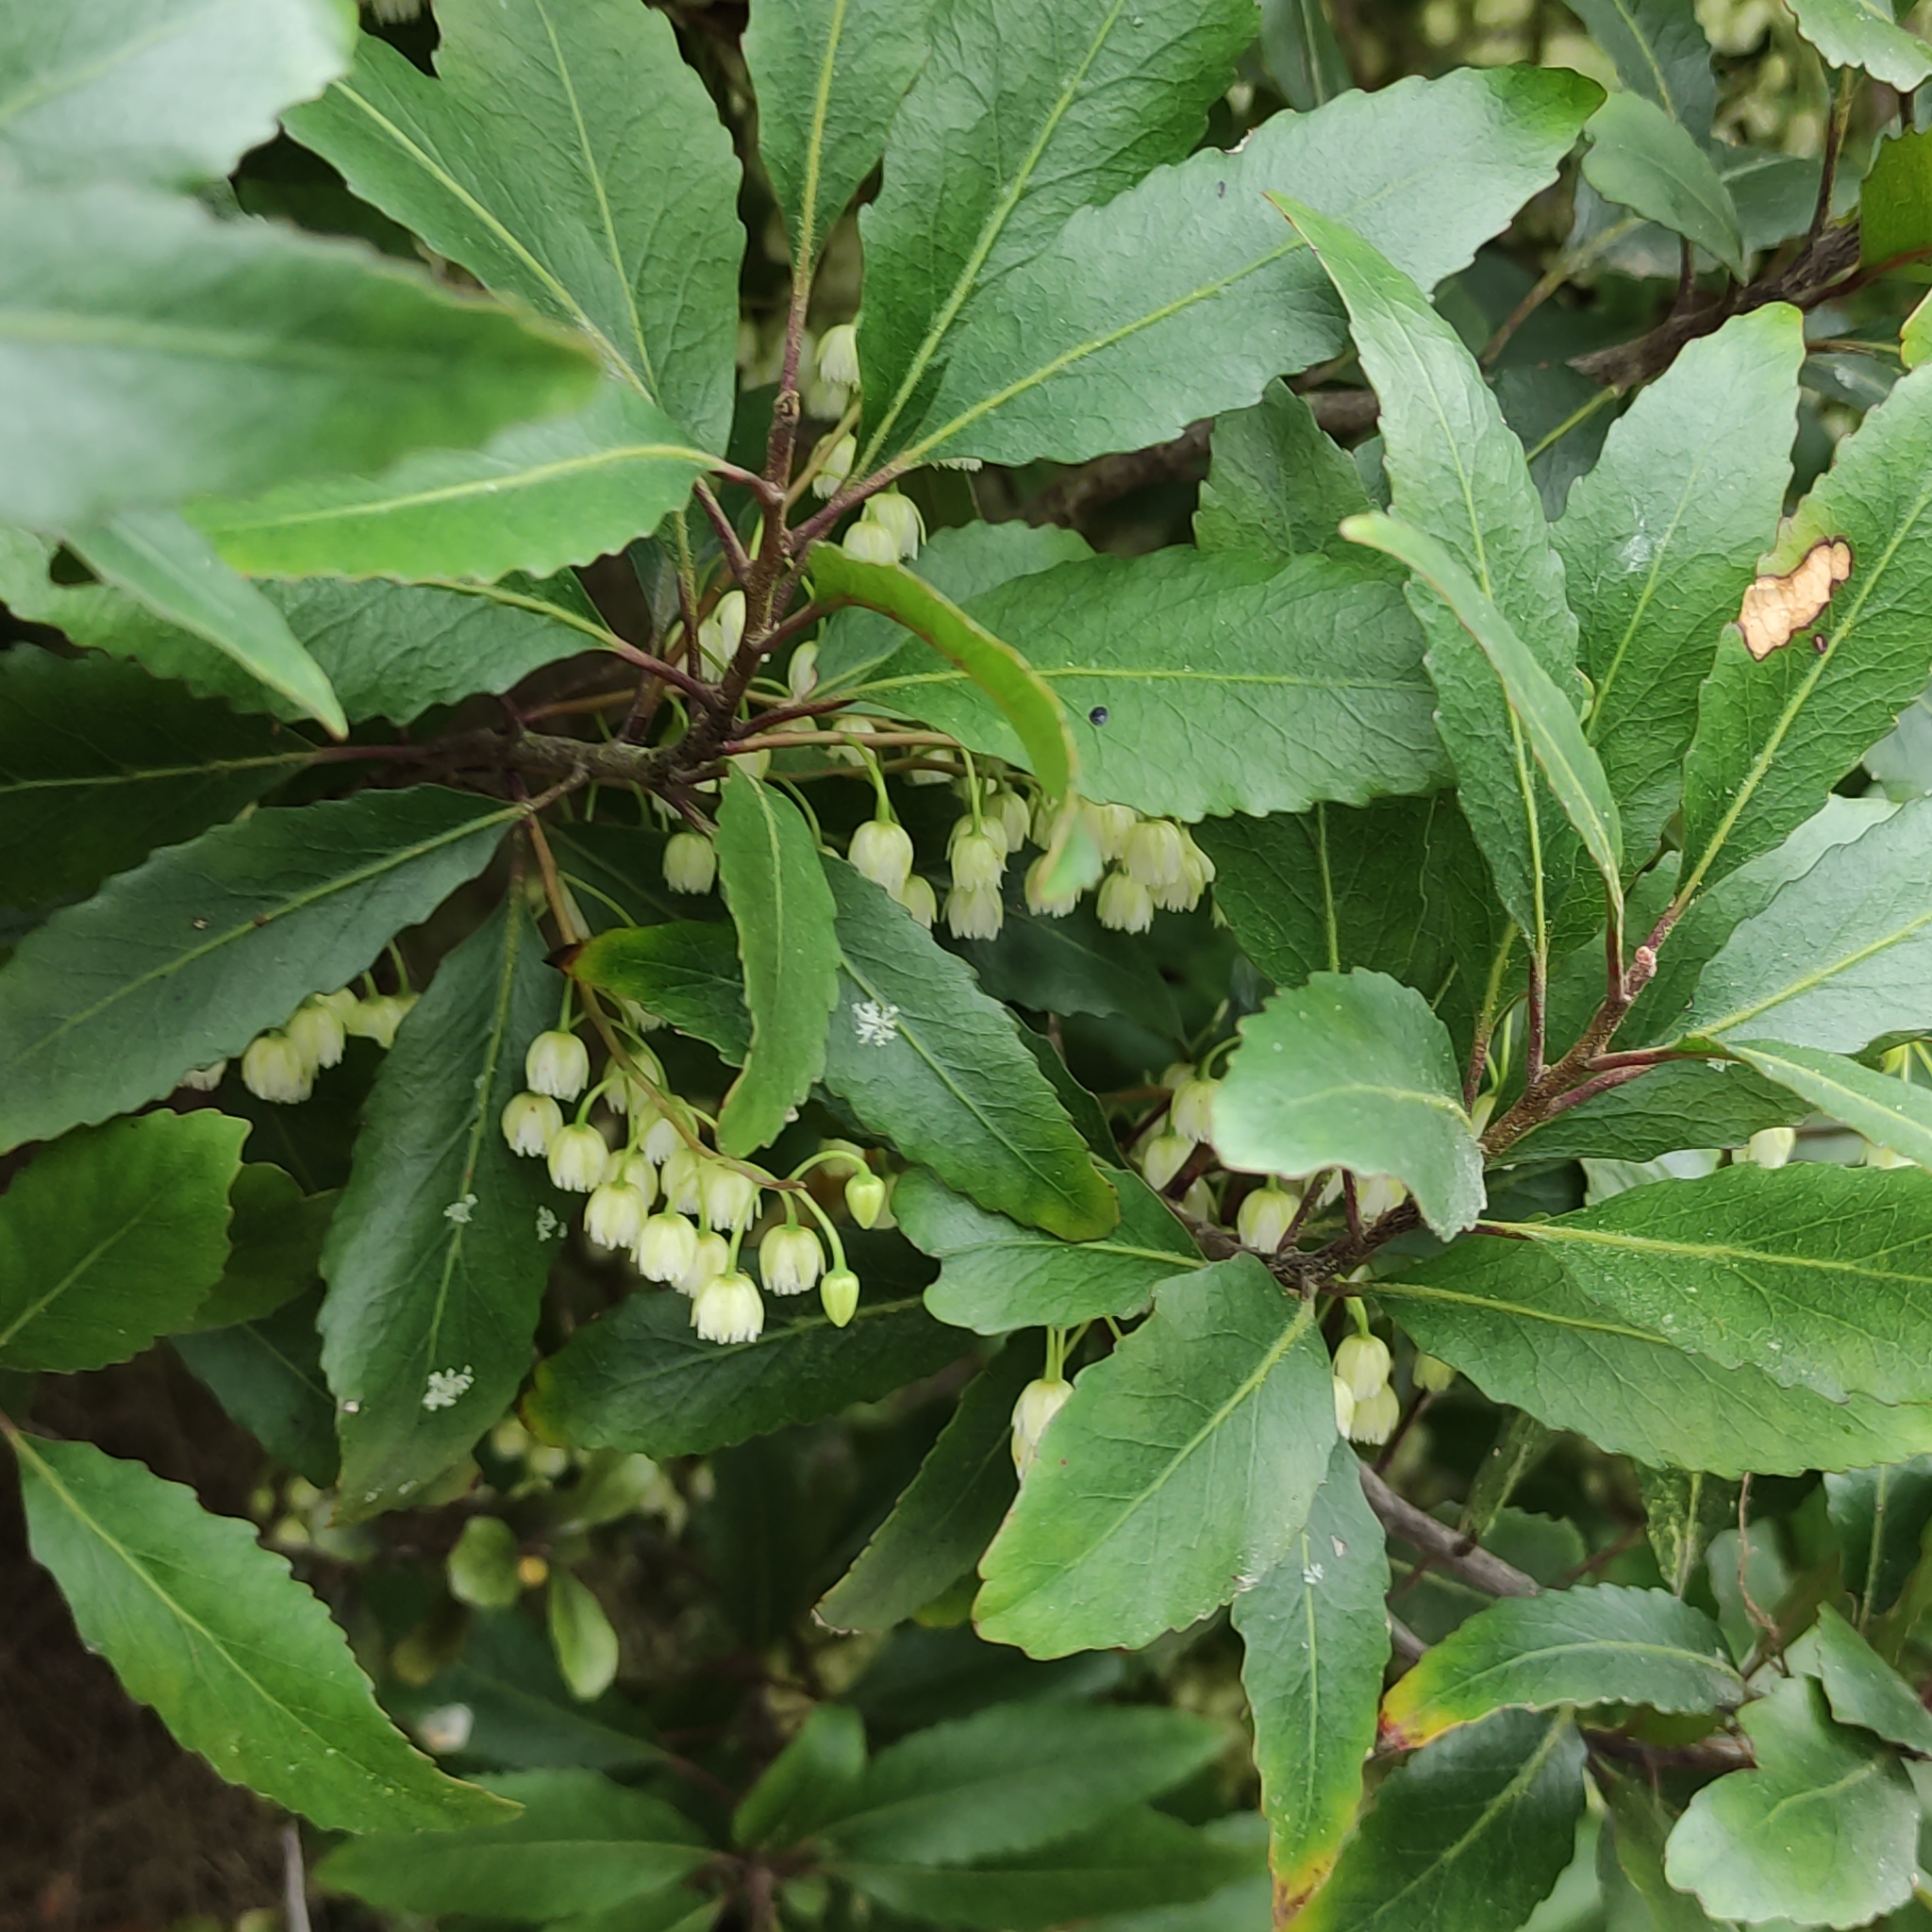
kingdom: Plantae
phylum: Tracheophyta
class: Magnoliopsida
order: Oxalidales
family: Elaeocarpaceae
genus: Elaeocarpus
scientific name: Elaeocarpus hookerianus
